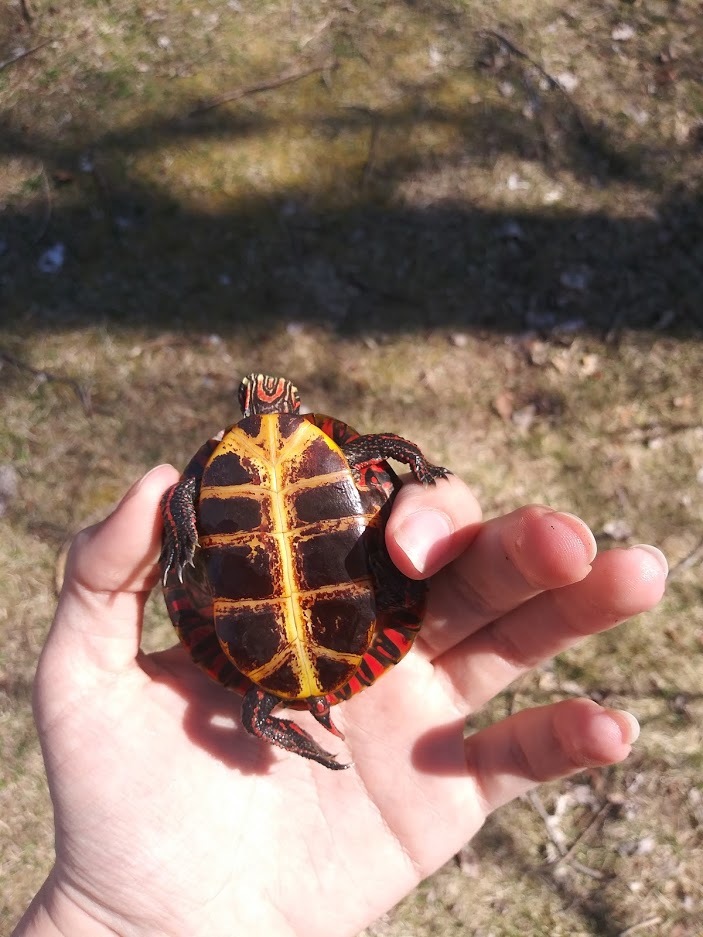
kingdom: Animalia
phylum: Chordata
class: Testudines
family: Emydidae
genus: Chrysemys
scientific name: Chrysemys picta
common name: Painted turtle
